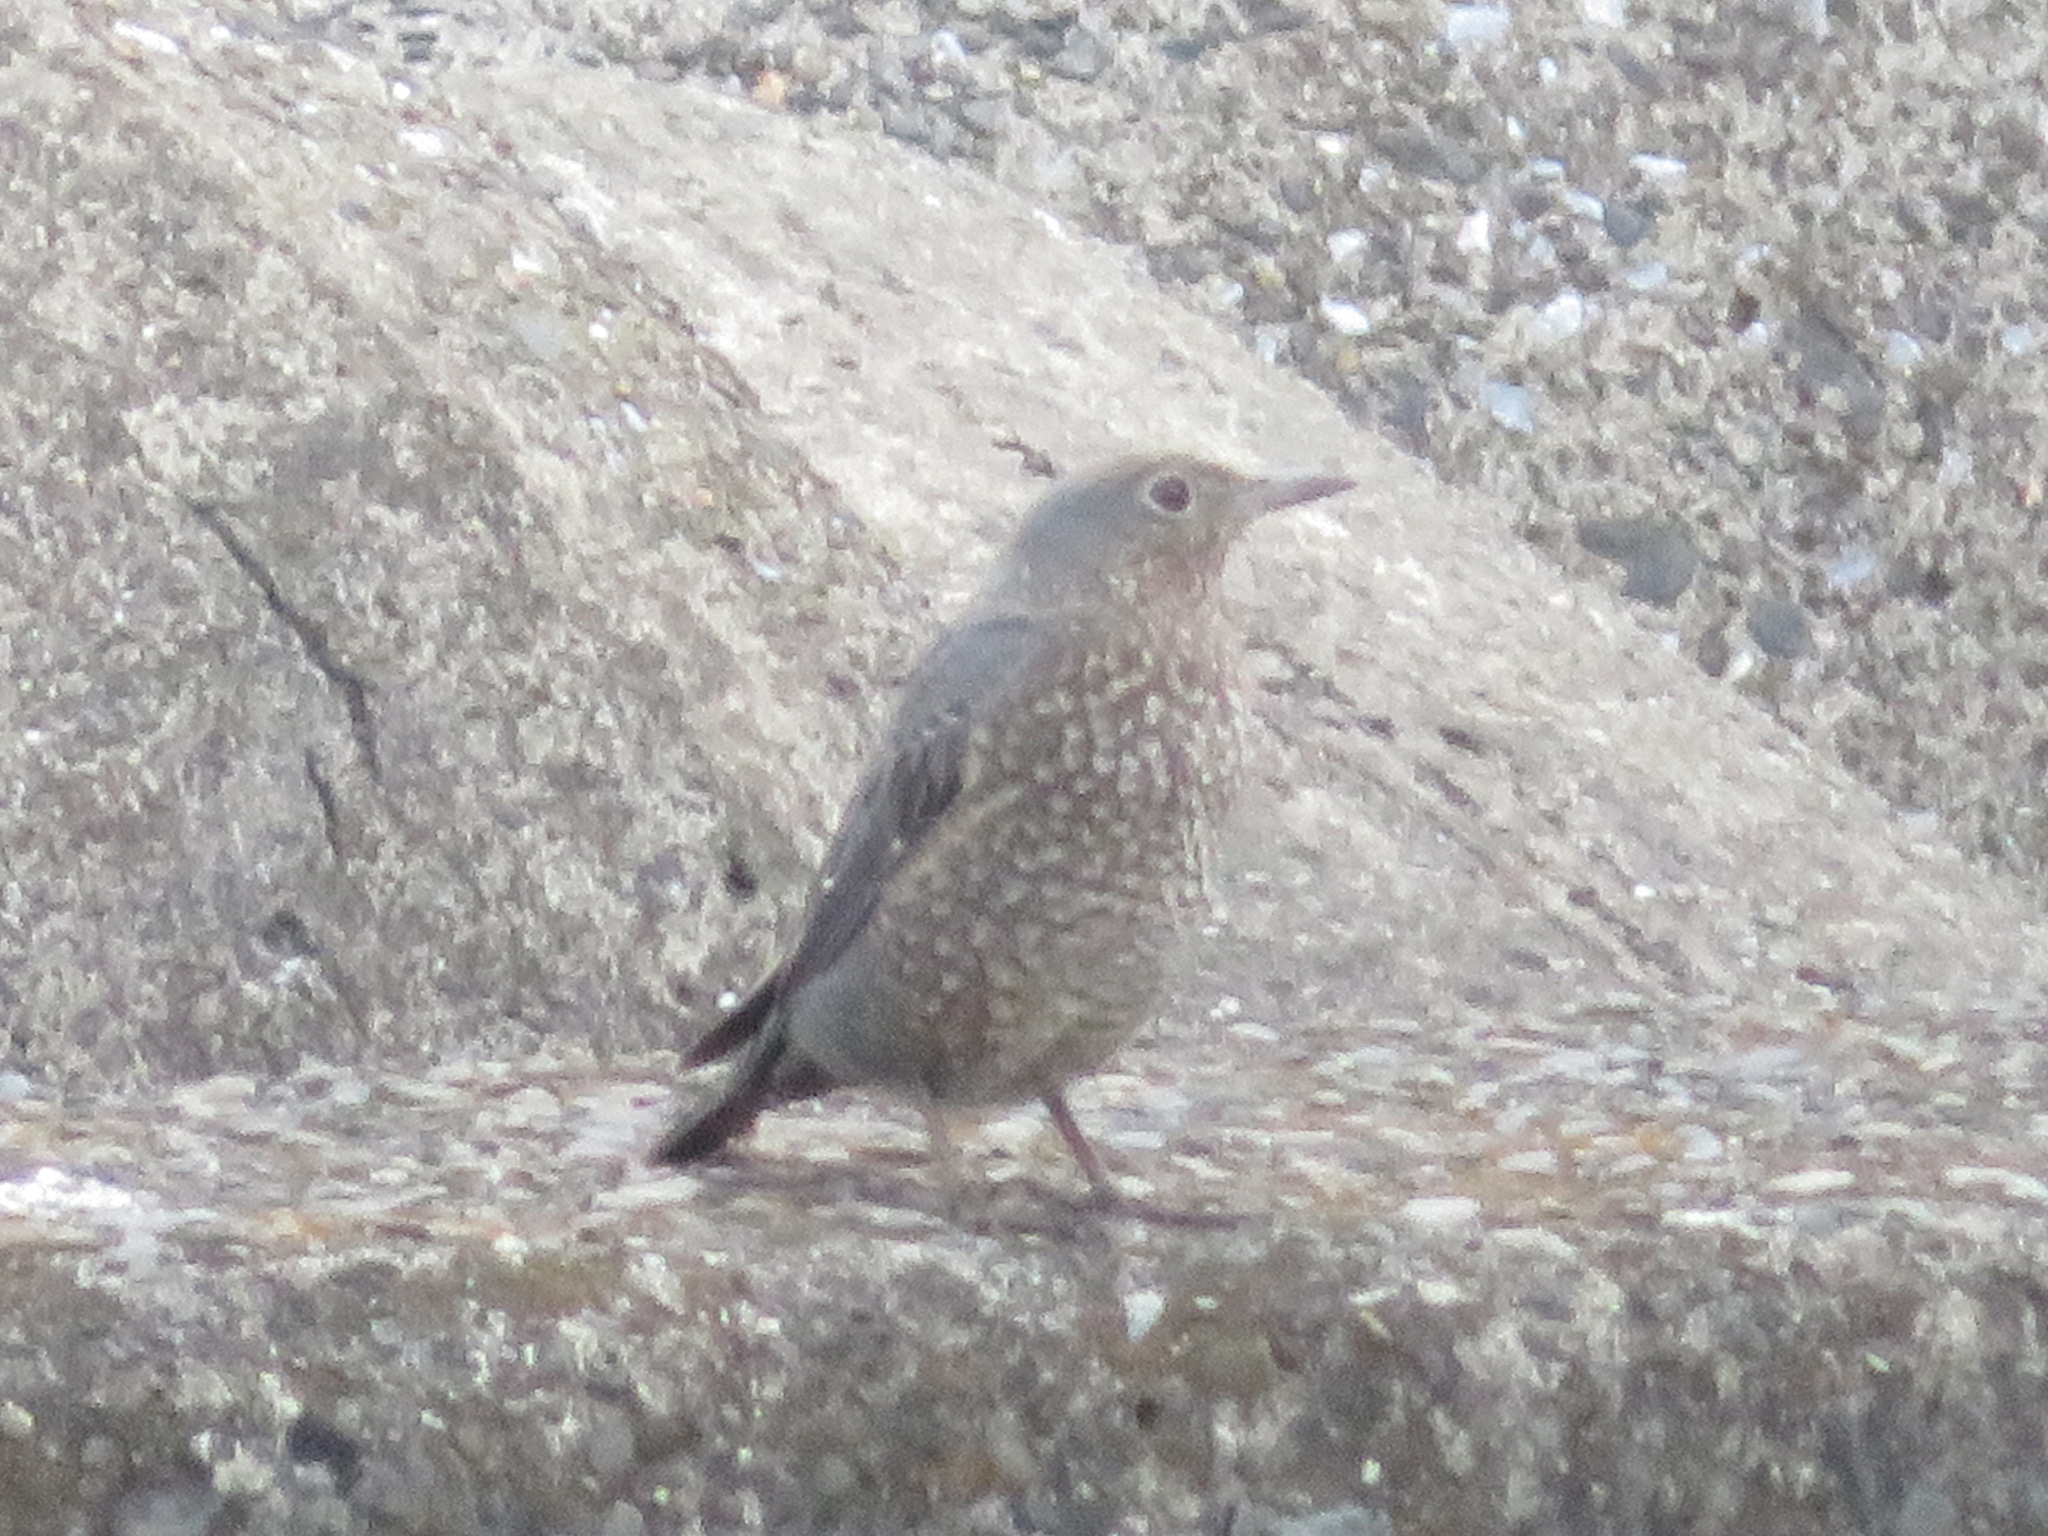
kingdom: Animalia
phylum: Chordata
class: Aves
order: Passeriformes
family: Muscicapidae
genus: Monticola
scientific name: Monticola solitarius
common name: Blue rock thrush
